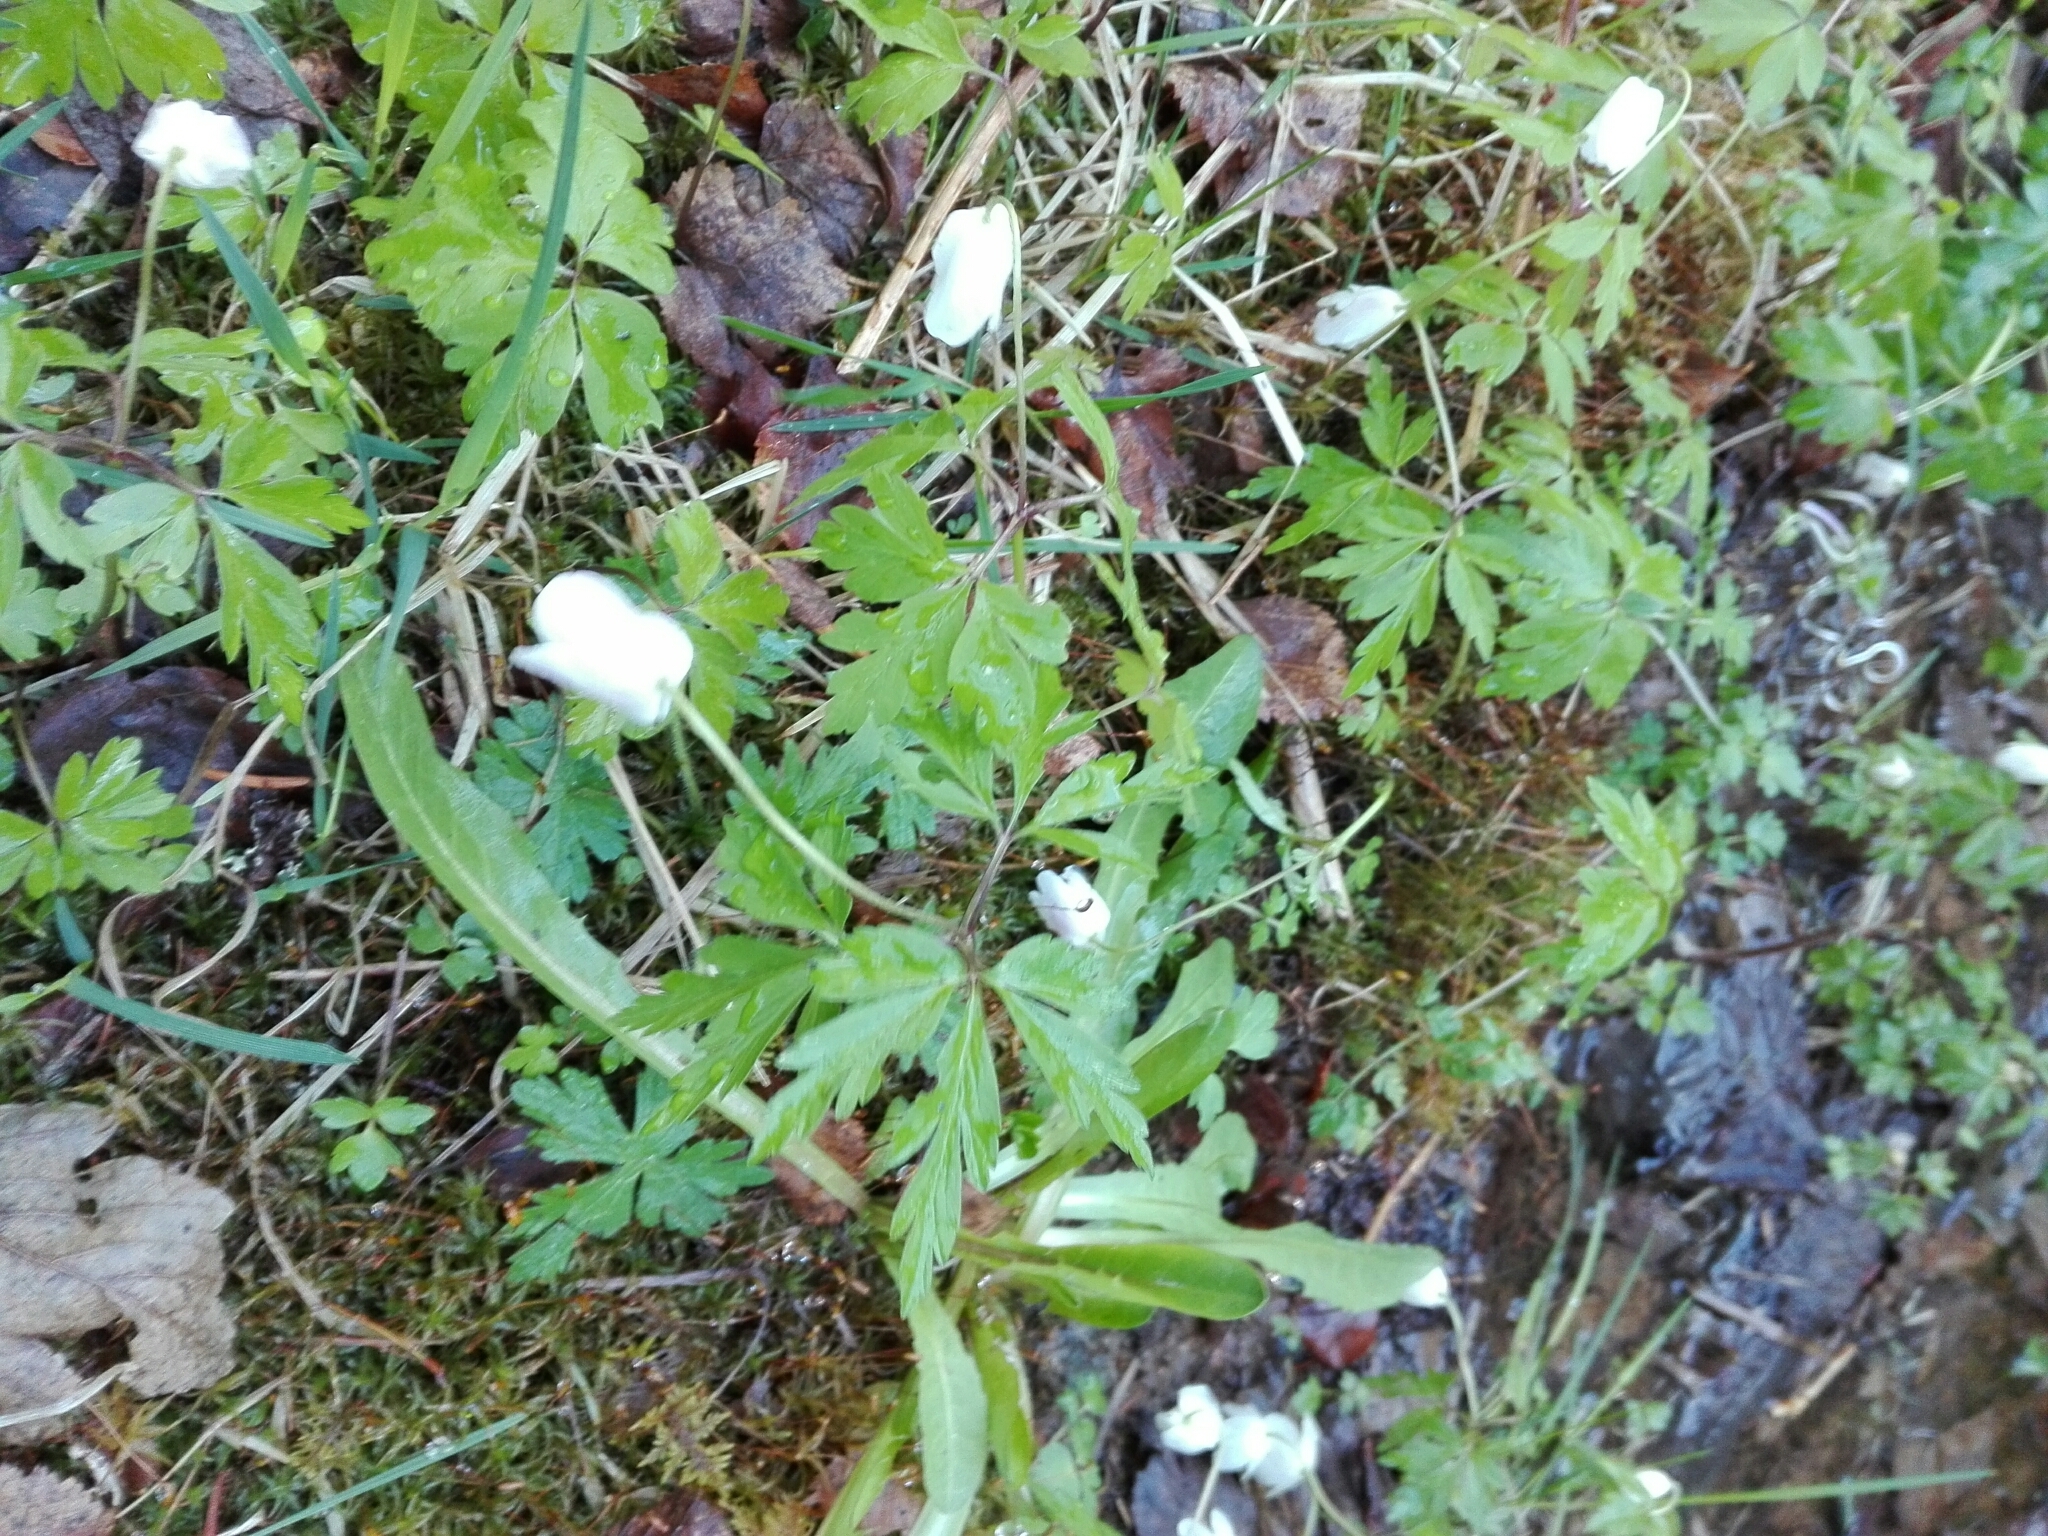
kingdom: Plantae
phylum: Tracheophyta
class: Magnoliopsida
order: Ranunculales
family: Ranunculaceae
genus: Anemone
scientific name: Anemone nemorosa
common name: Wood anemone
